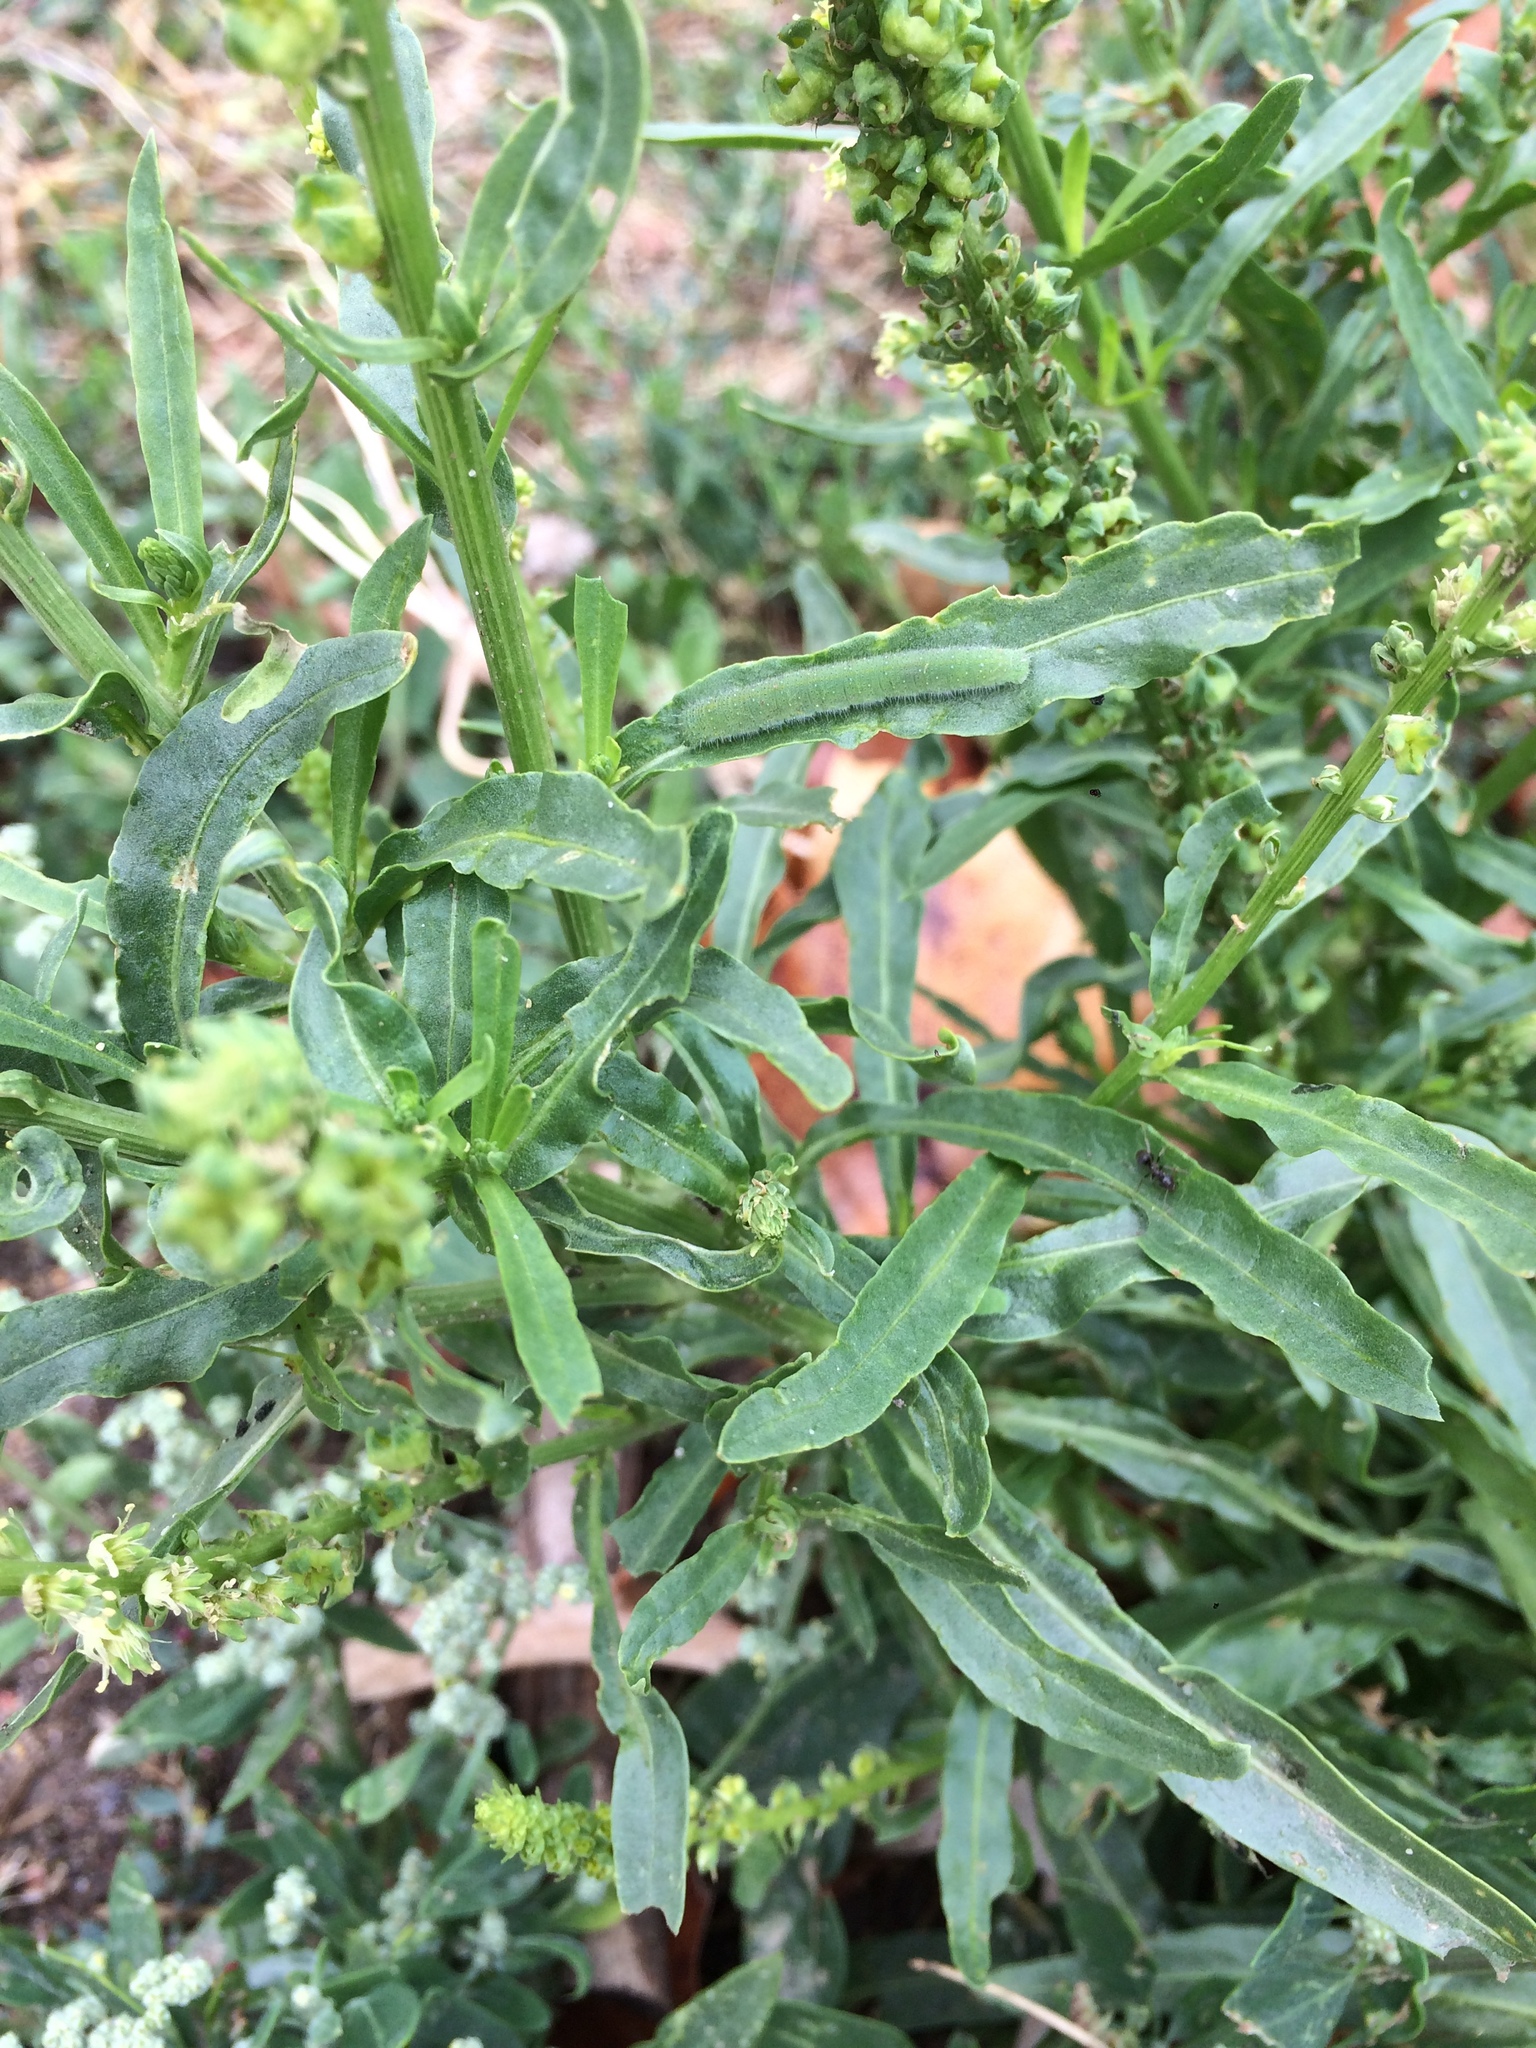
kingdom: Plantae
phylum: Tracheophyta
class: Magnoliopsida
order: Brassicales
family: Resedaceae
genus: Reseda
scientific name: Reseda luteola
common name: Weld
